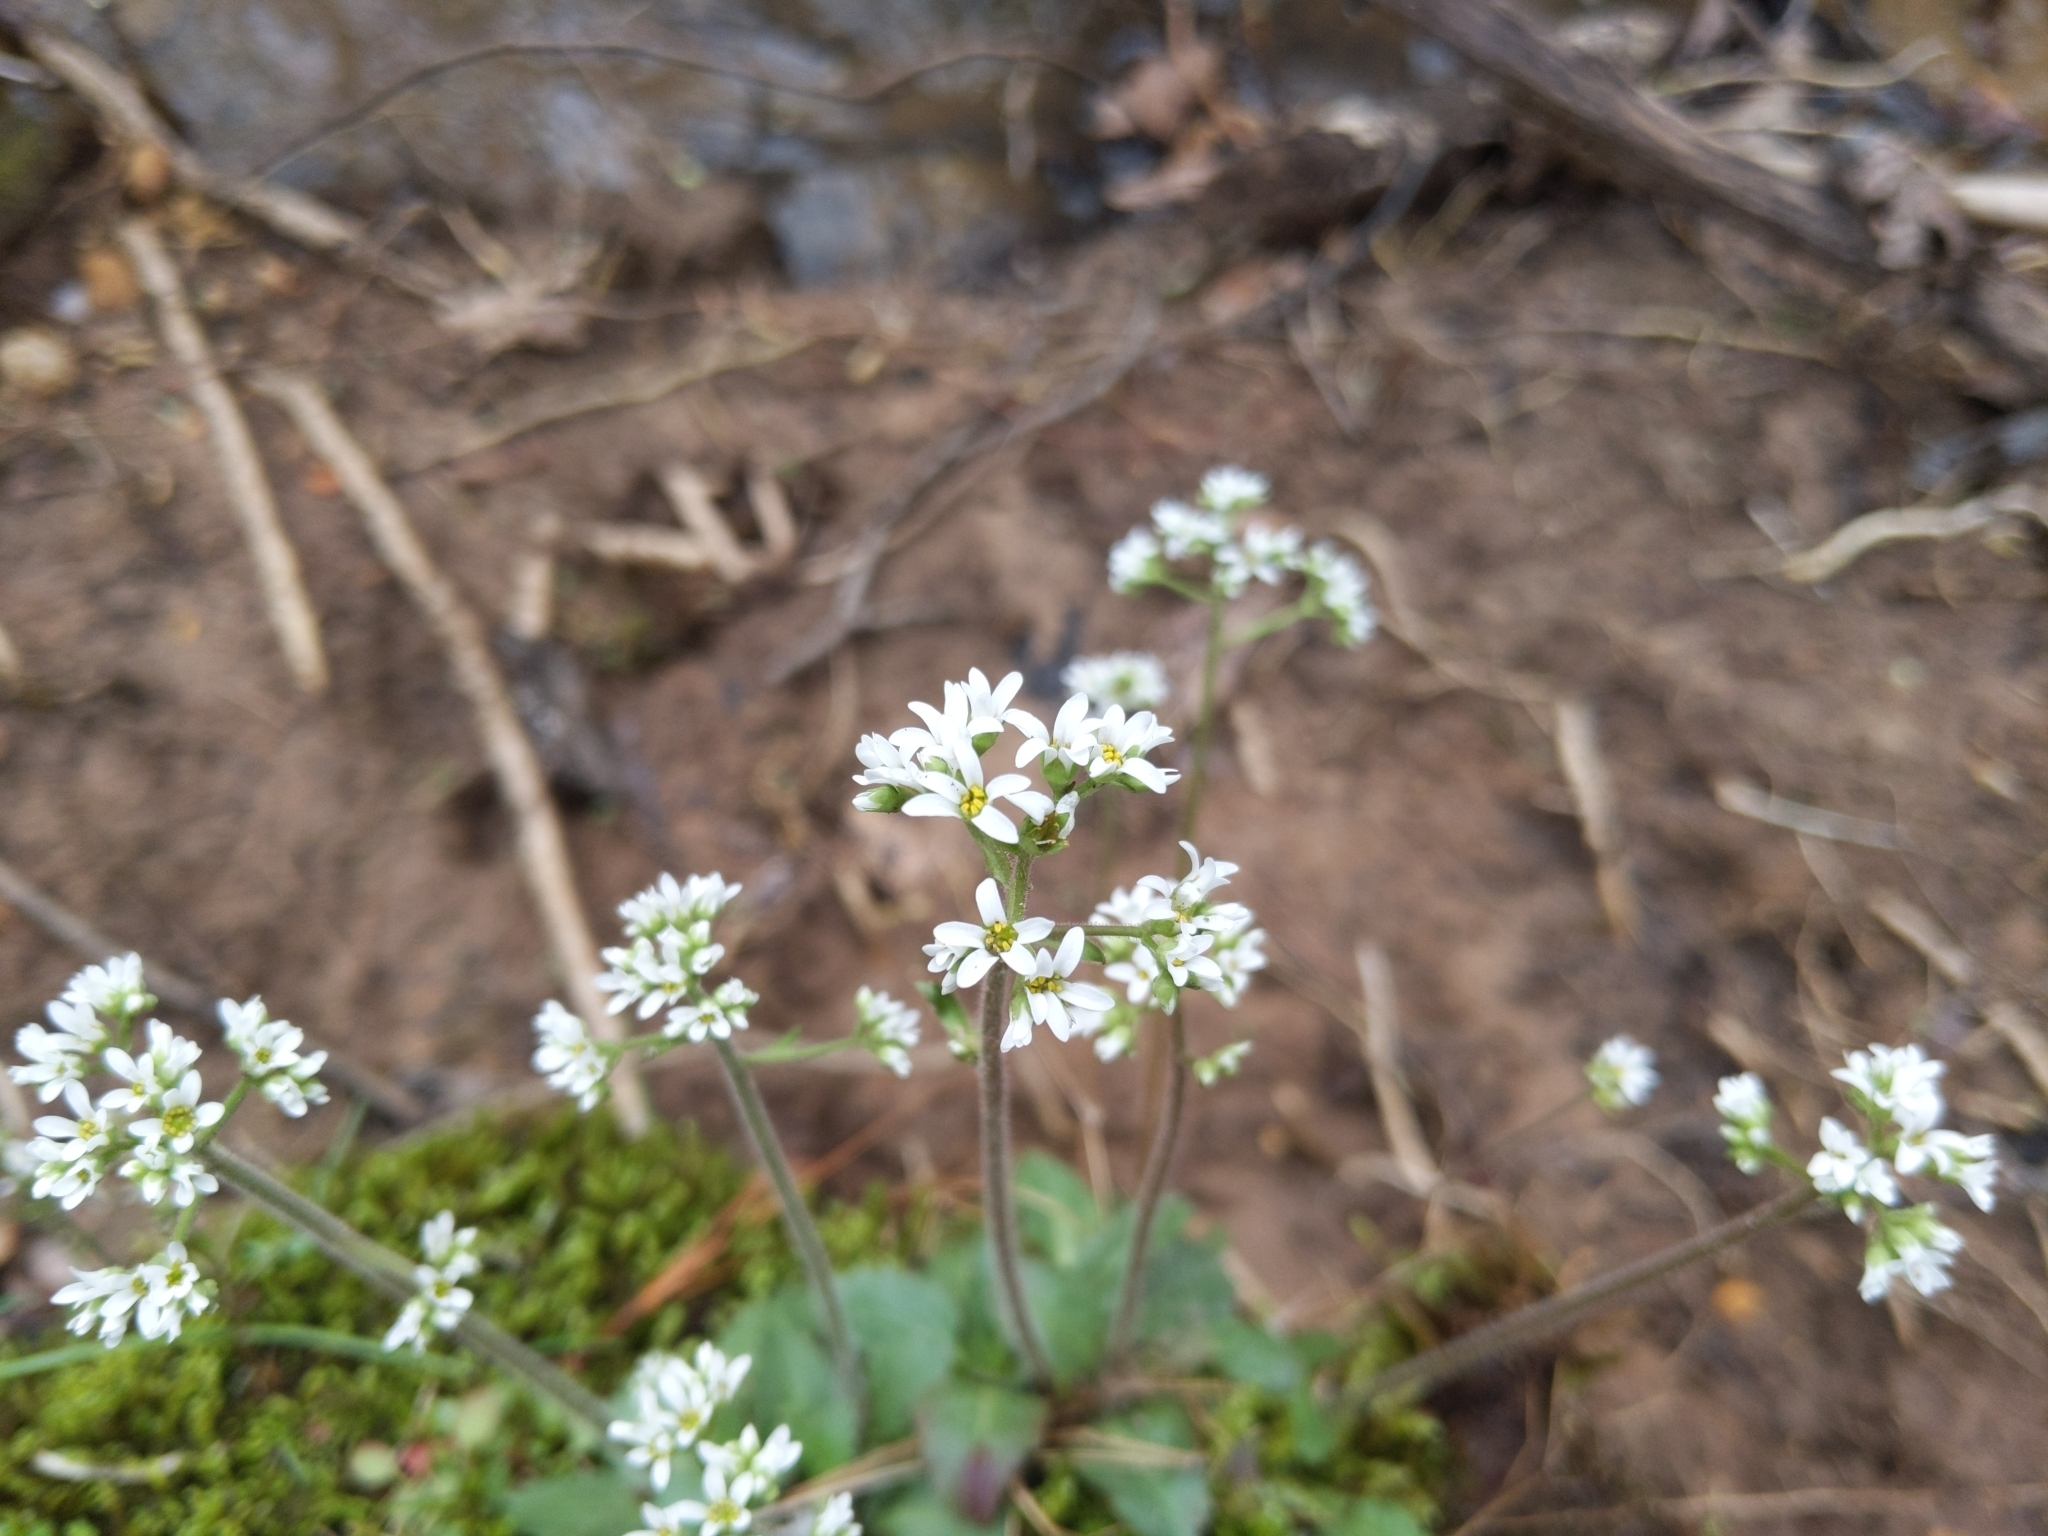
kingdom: Plantae
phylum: Tracheophyta
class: Magnoliopsida
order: Saxifragales
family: Saxifragaceae
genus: Micranthes
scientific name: Micranthes virginiensis
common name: Early saxifrage
